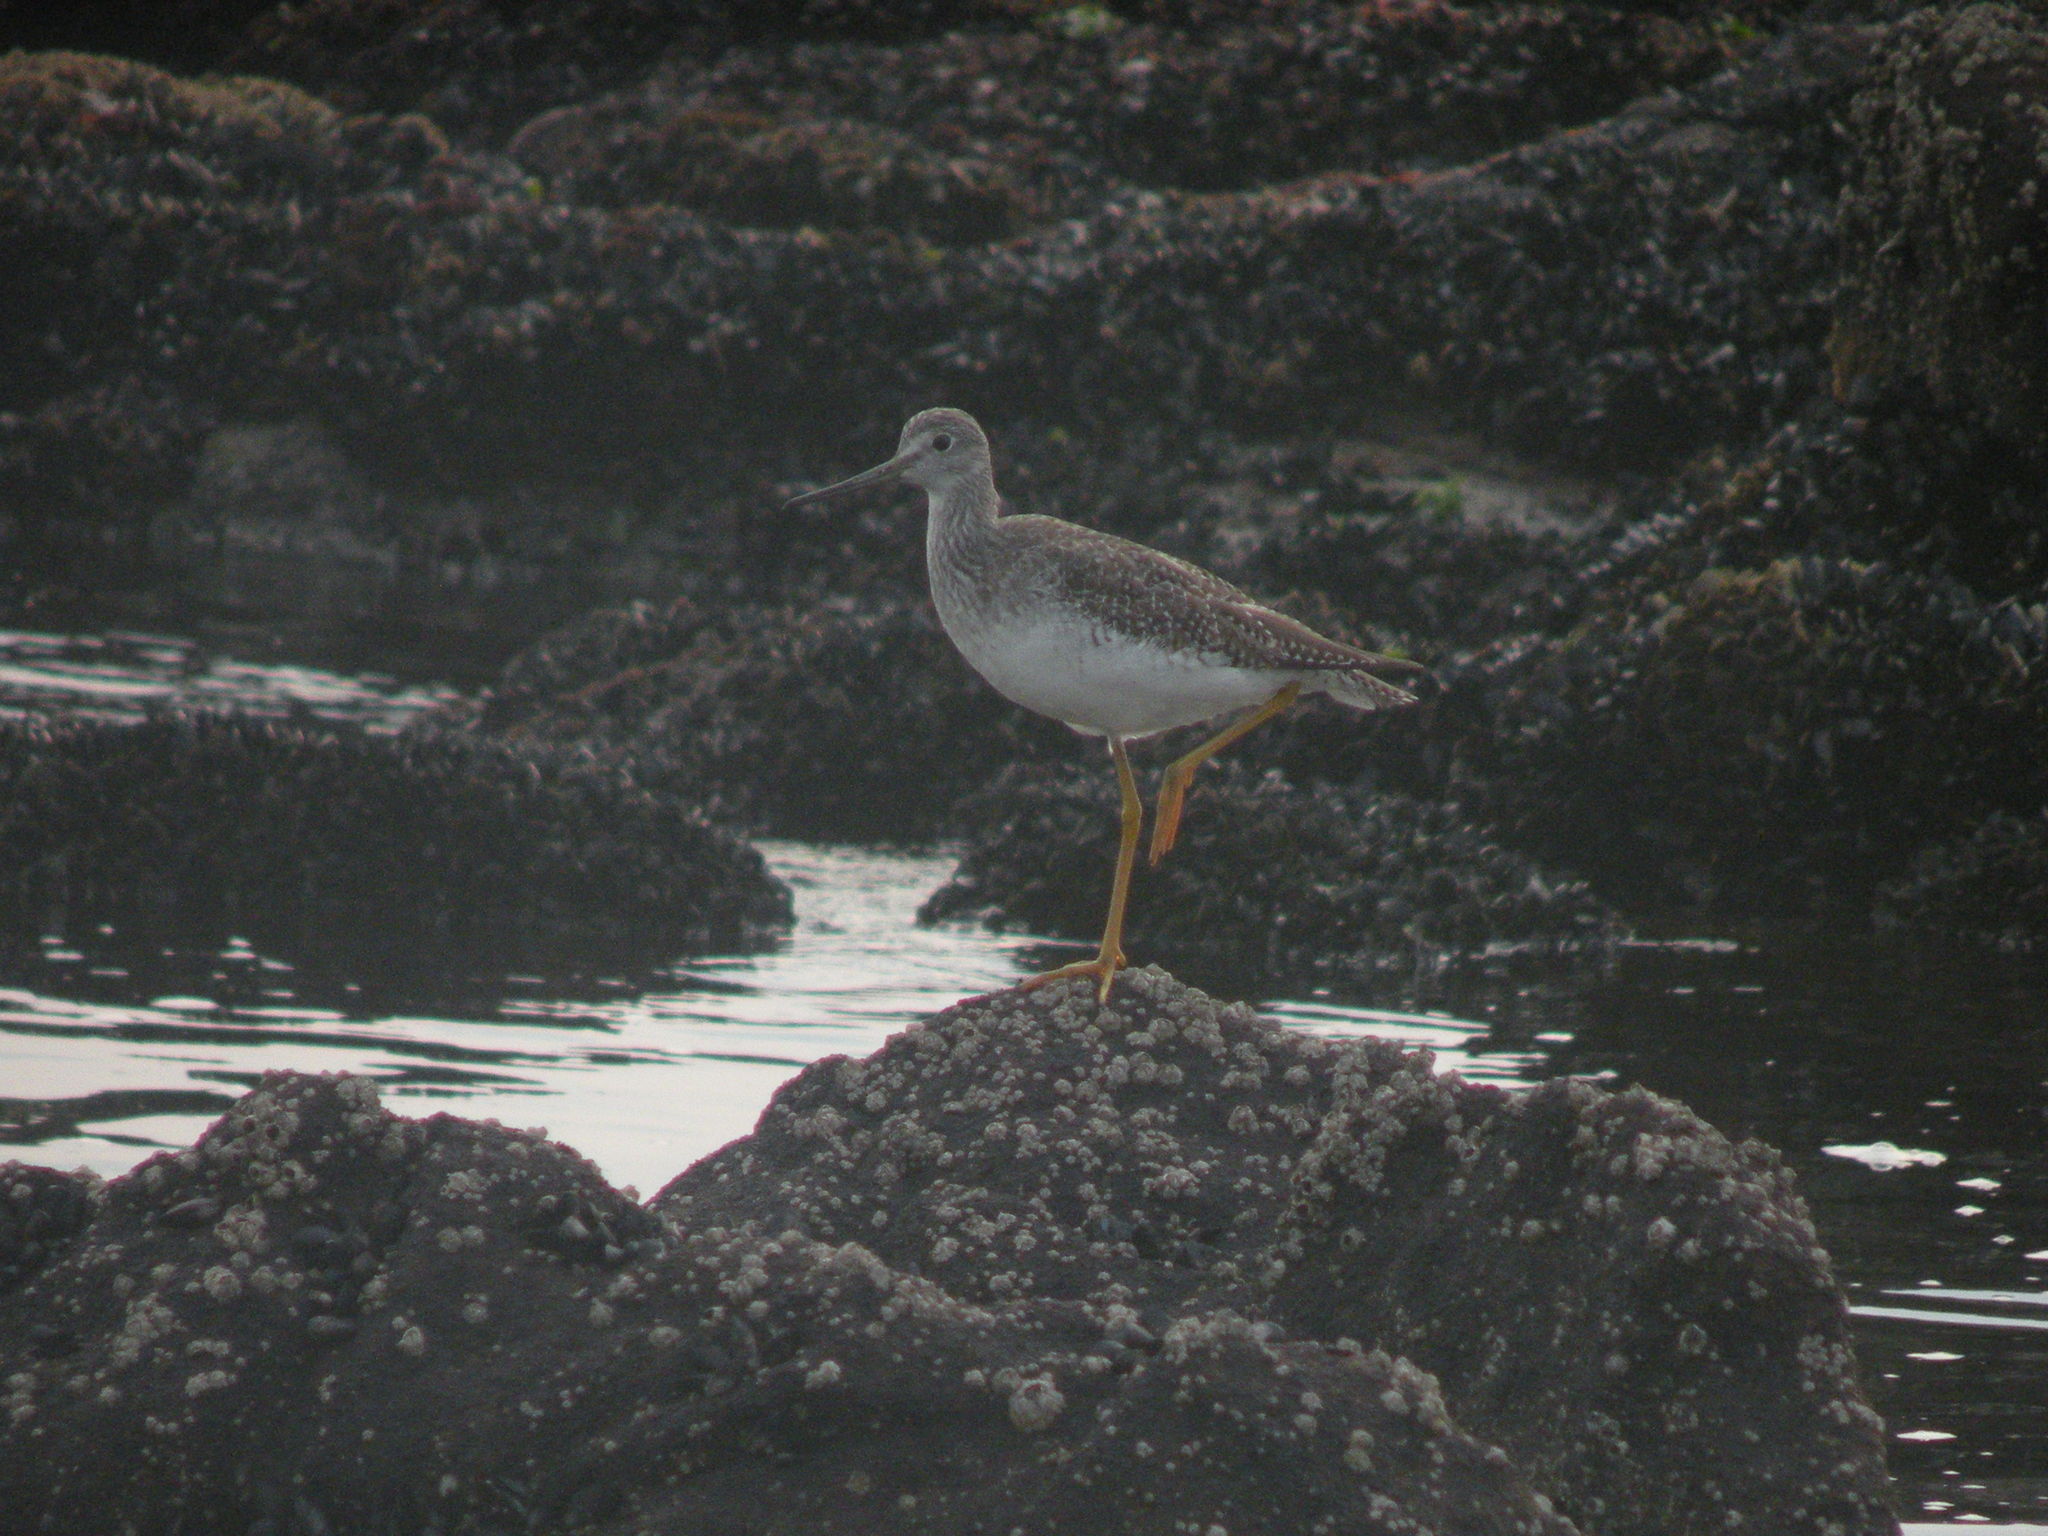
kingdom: Animalia
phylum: Chordata
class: Aves
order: Charadriiformes
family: Scolopacidae
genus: Tringa
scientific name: Tringa melanoleuca
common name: Greater yellowlegs
